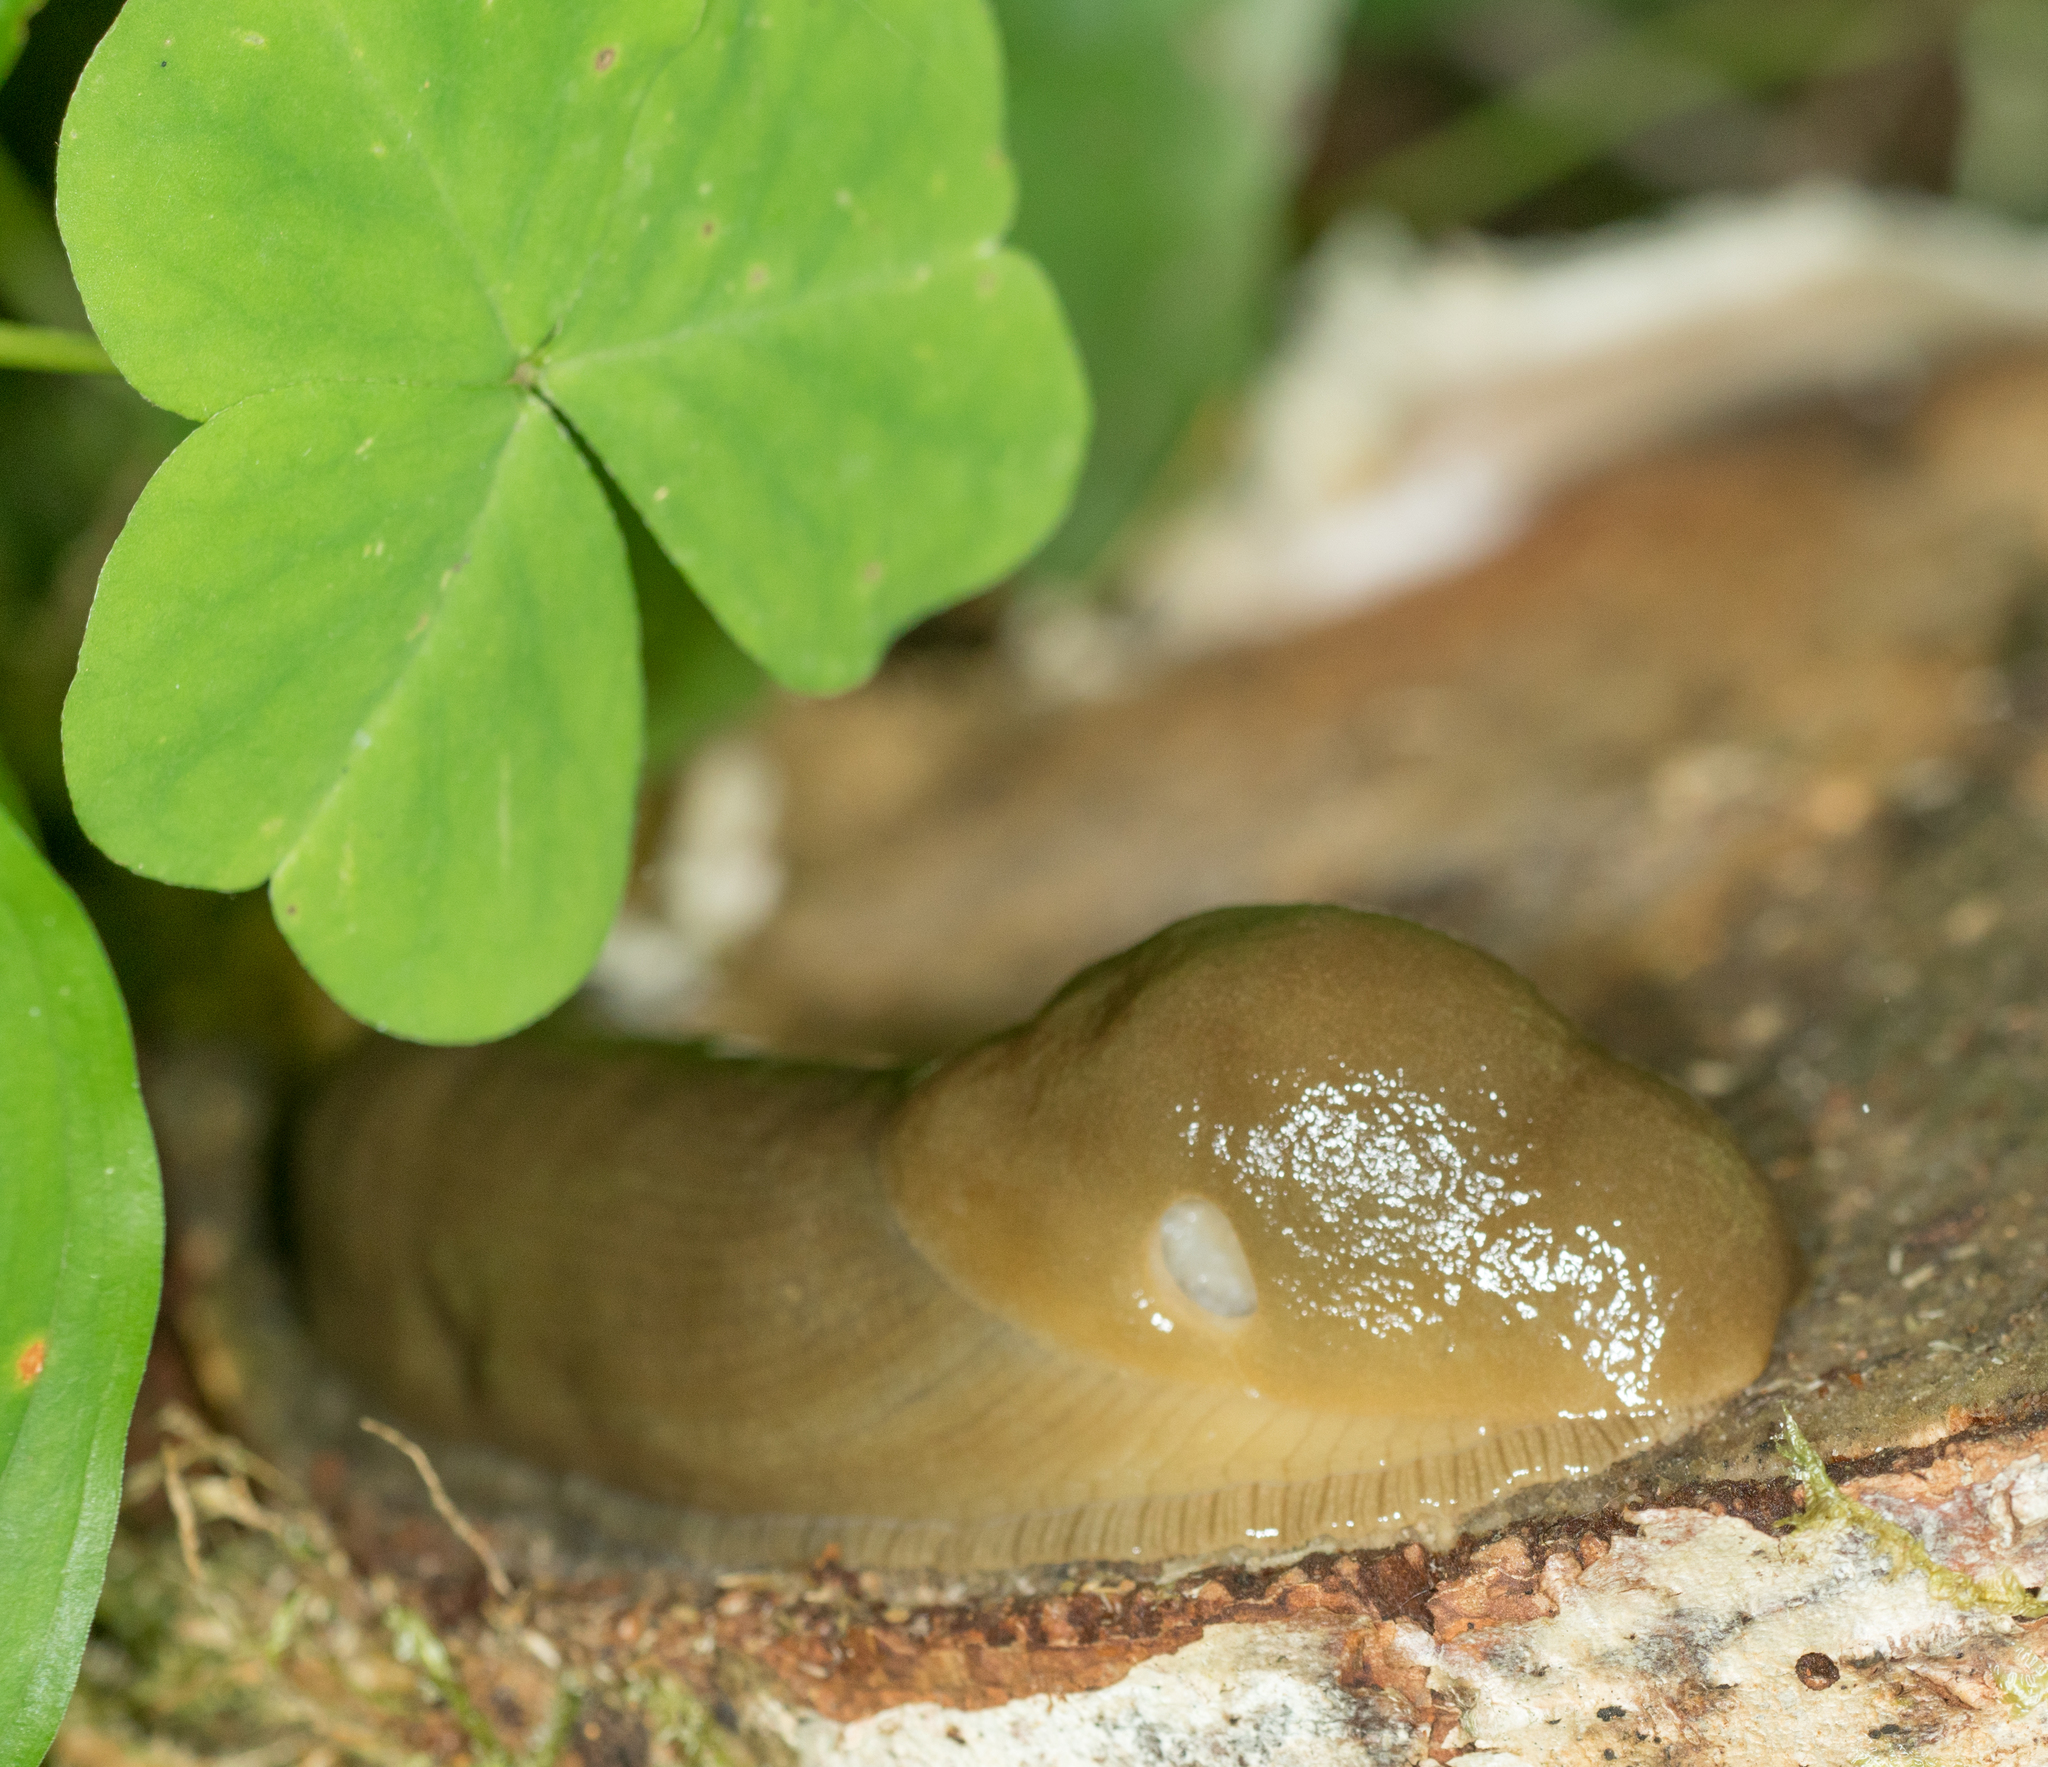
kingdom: Animalia
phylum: Mollusca
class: Gastropoda
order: Stylommatophora
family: Ariolimacidae
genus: Ariolimax
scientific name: Ariolimax columbianus
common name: Pacific banana slug
